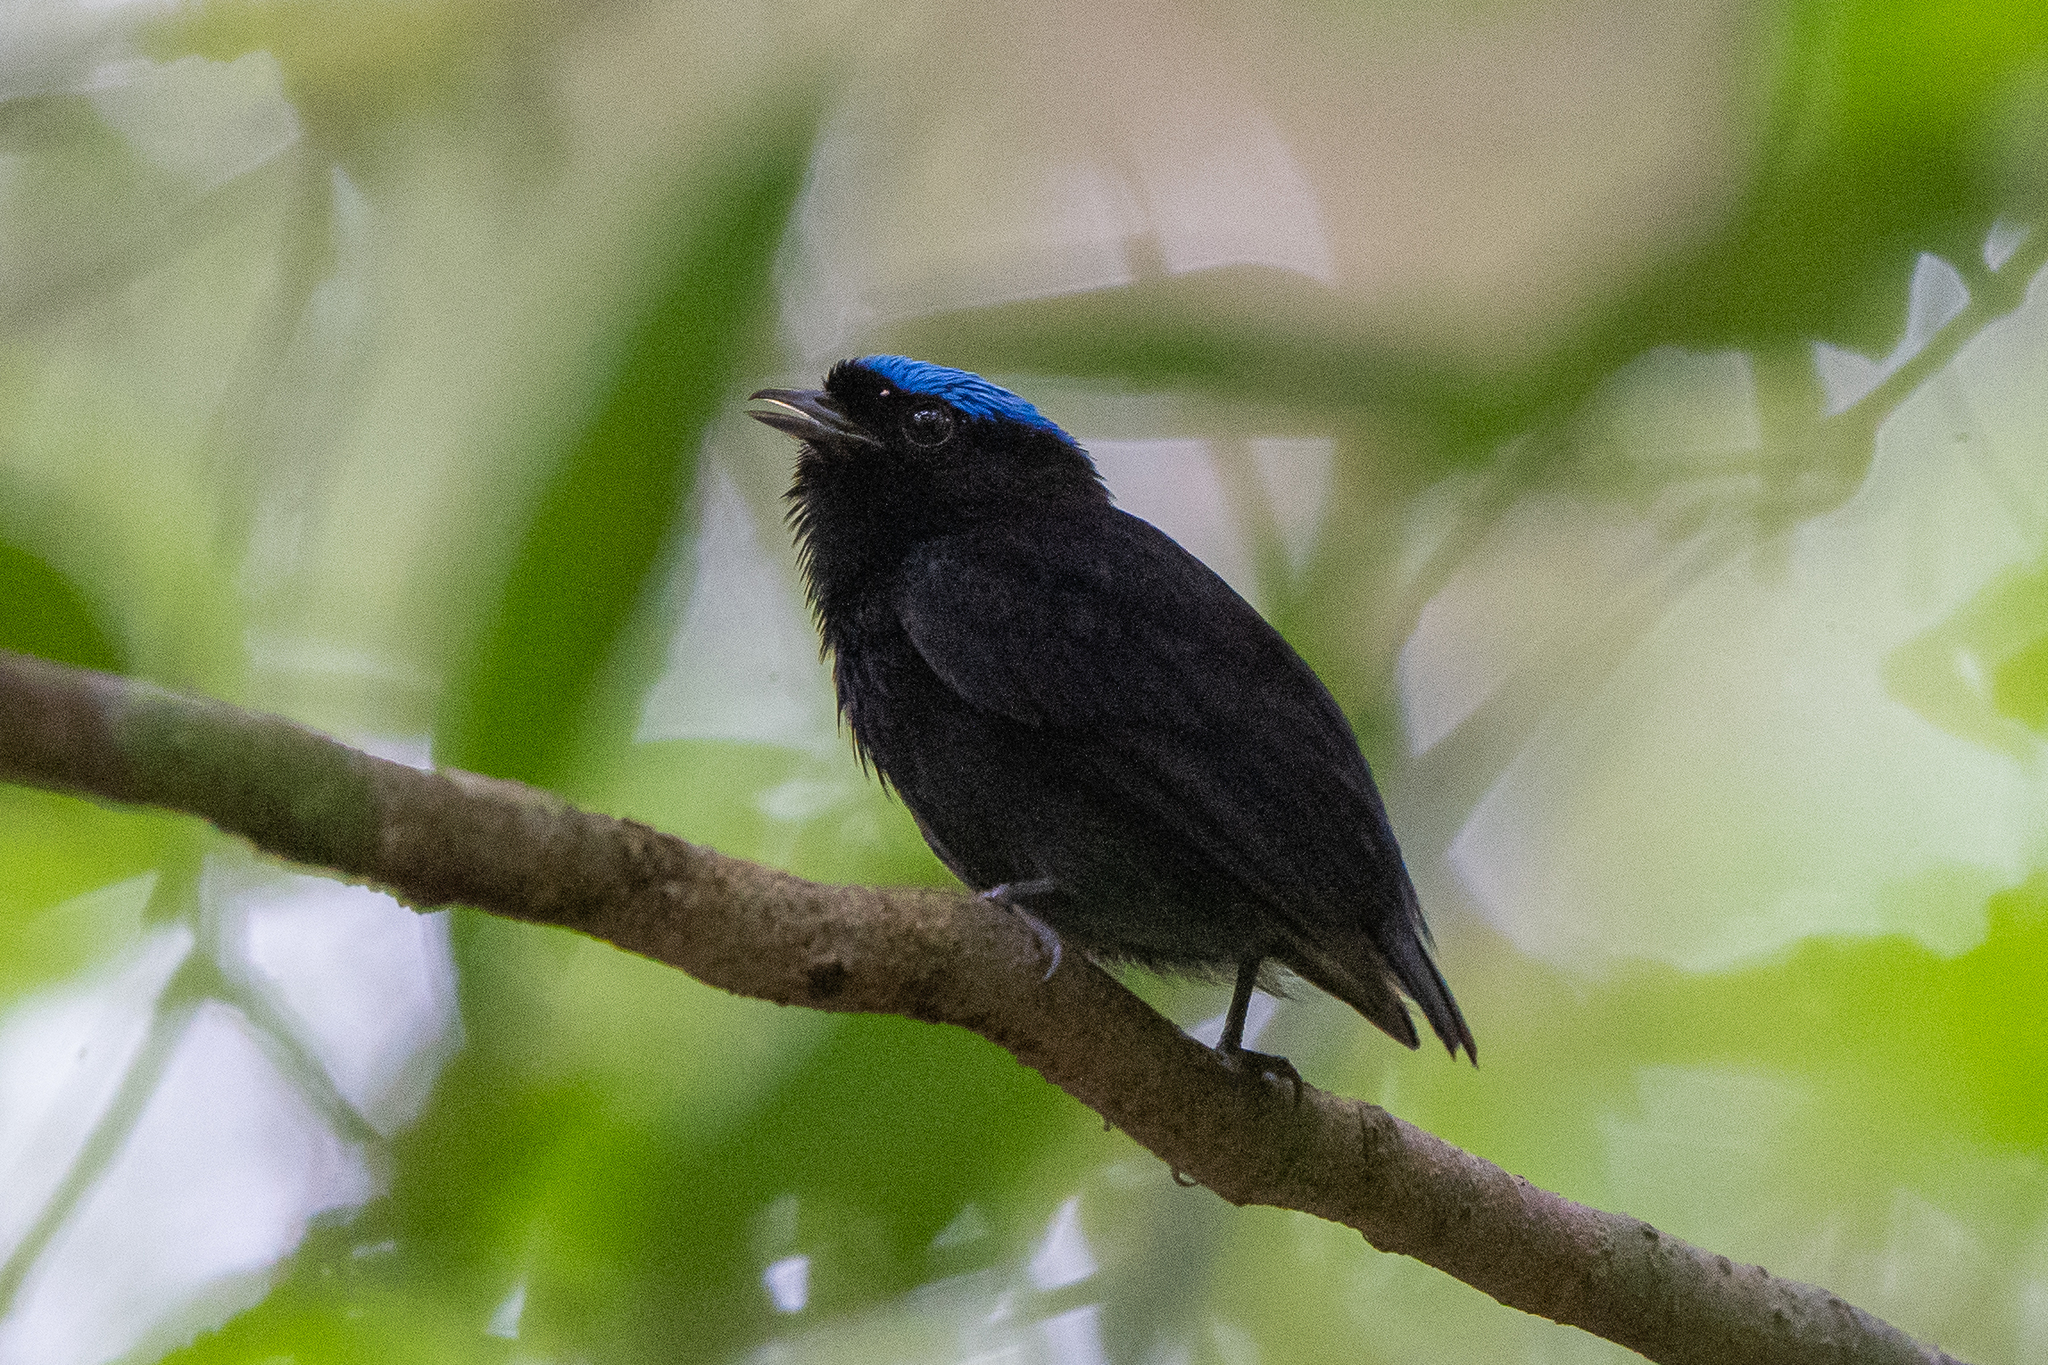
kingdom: Animalia
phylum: Chordata
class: Aves
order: Passeriformes
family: Pipridae
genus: Lepidothrix
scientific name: Lepidothrix coronata
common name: Blue-crowned manakin
